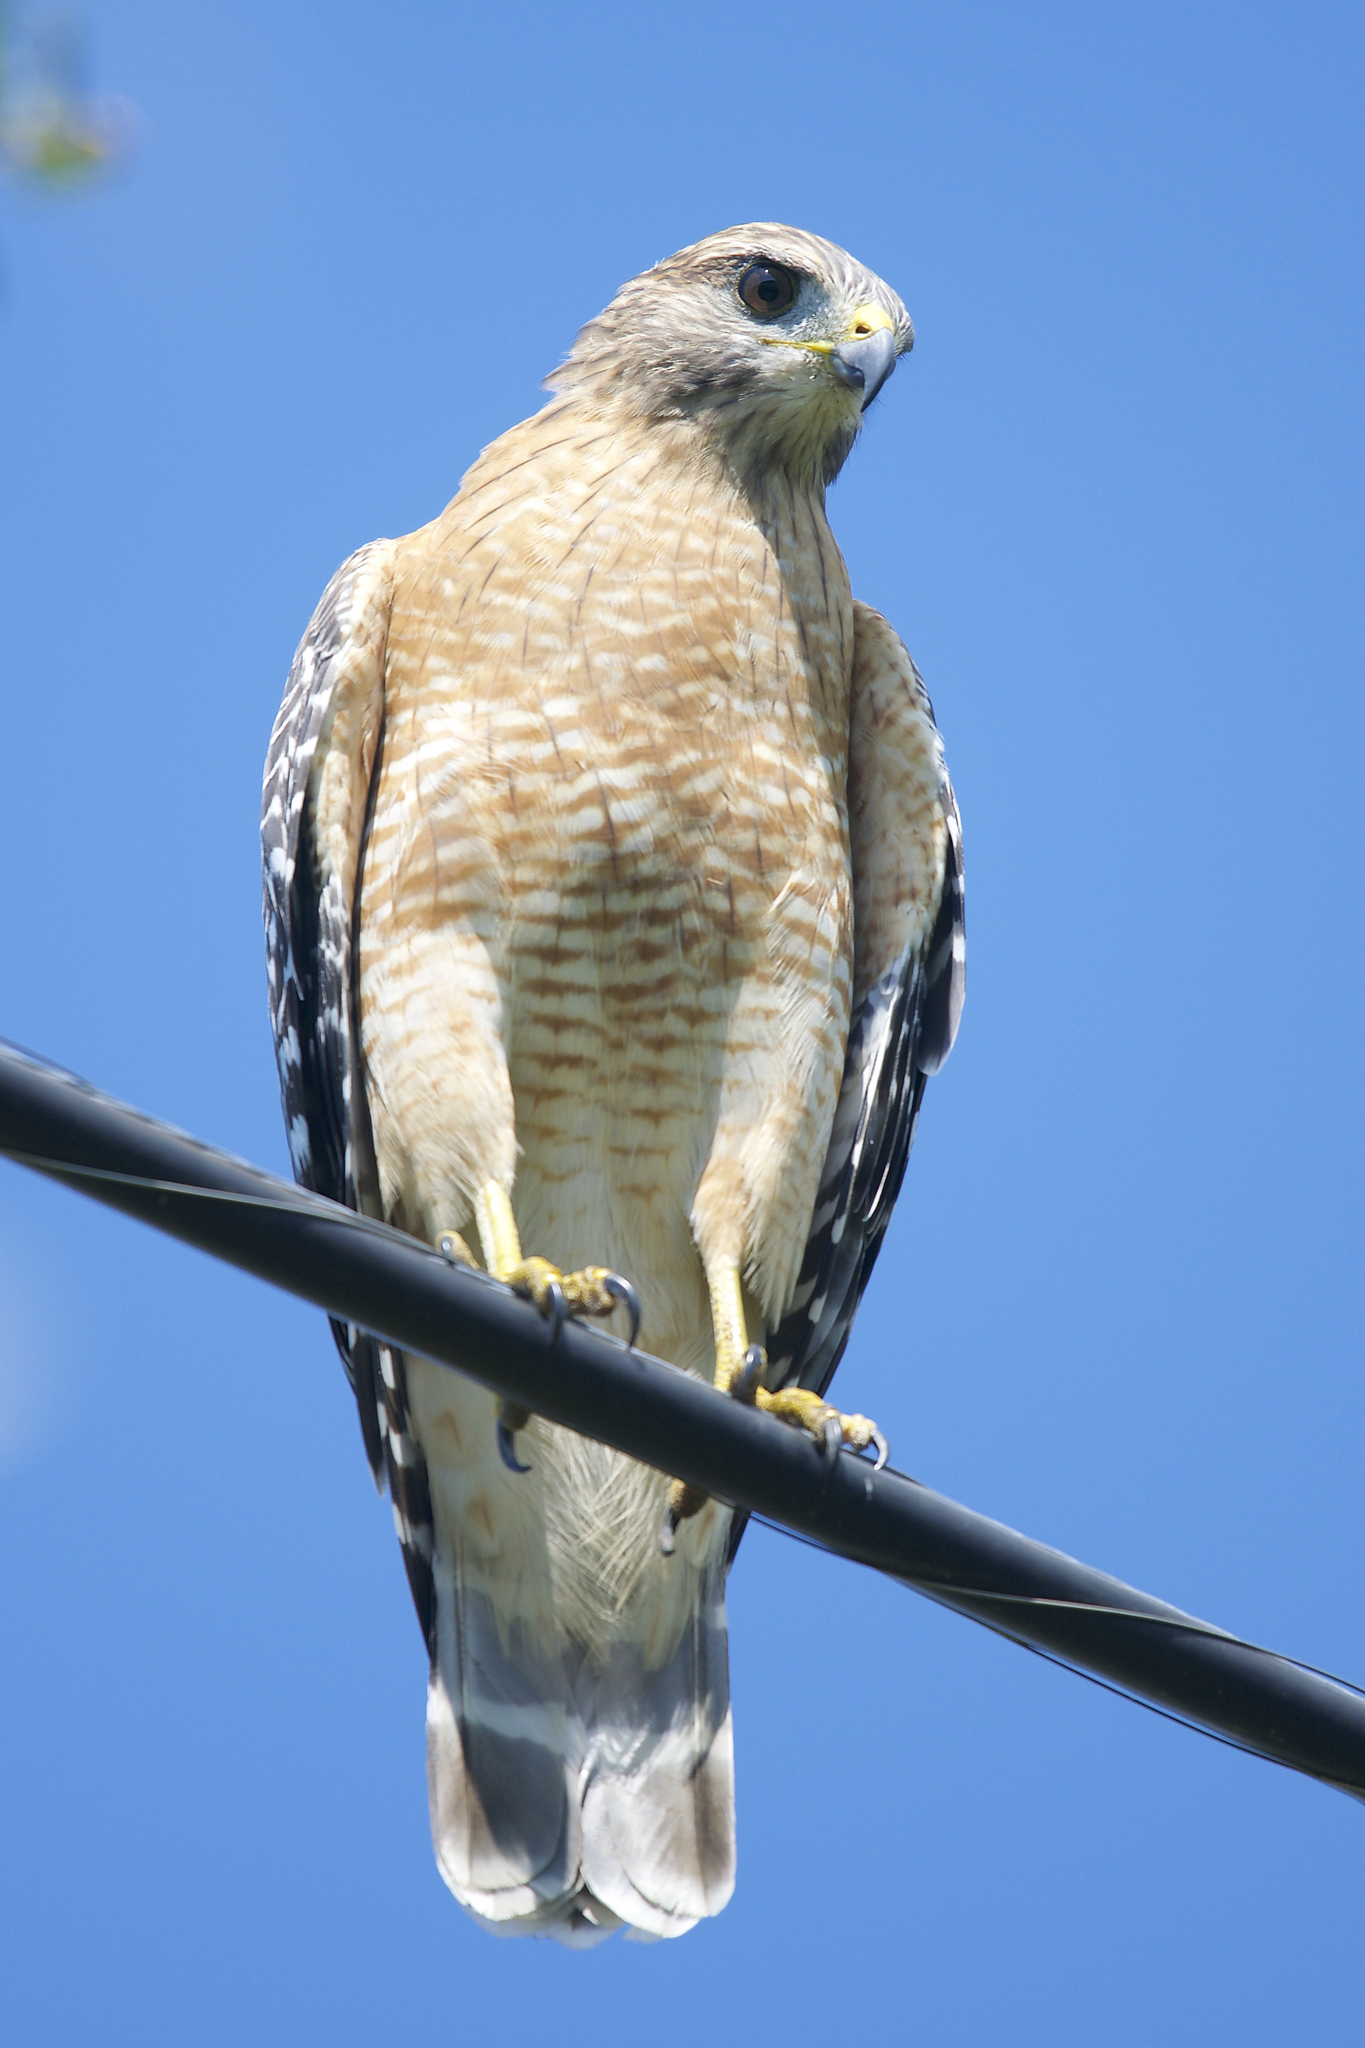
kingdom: Animalia
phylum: Chordata
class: Aves
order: Accipitriformes
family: Accipitridae
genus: Buteo
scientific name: Buteo lineatus
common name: Red-shouldered hawk
